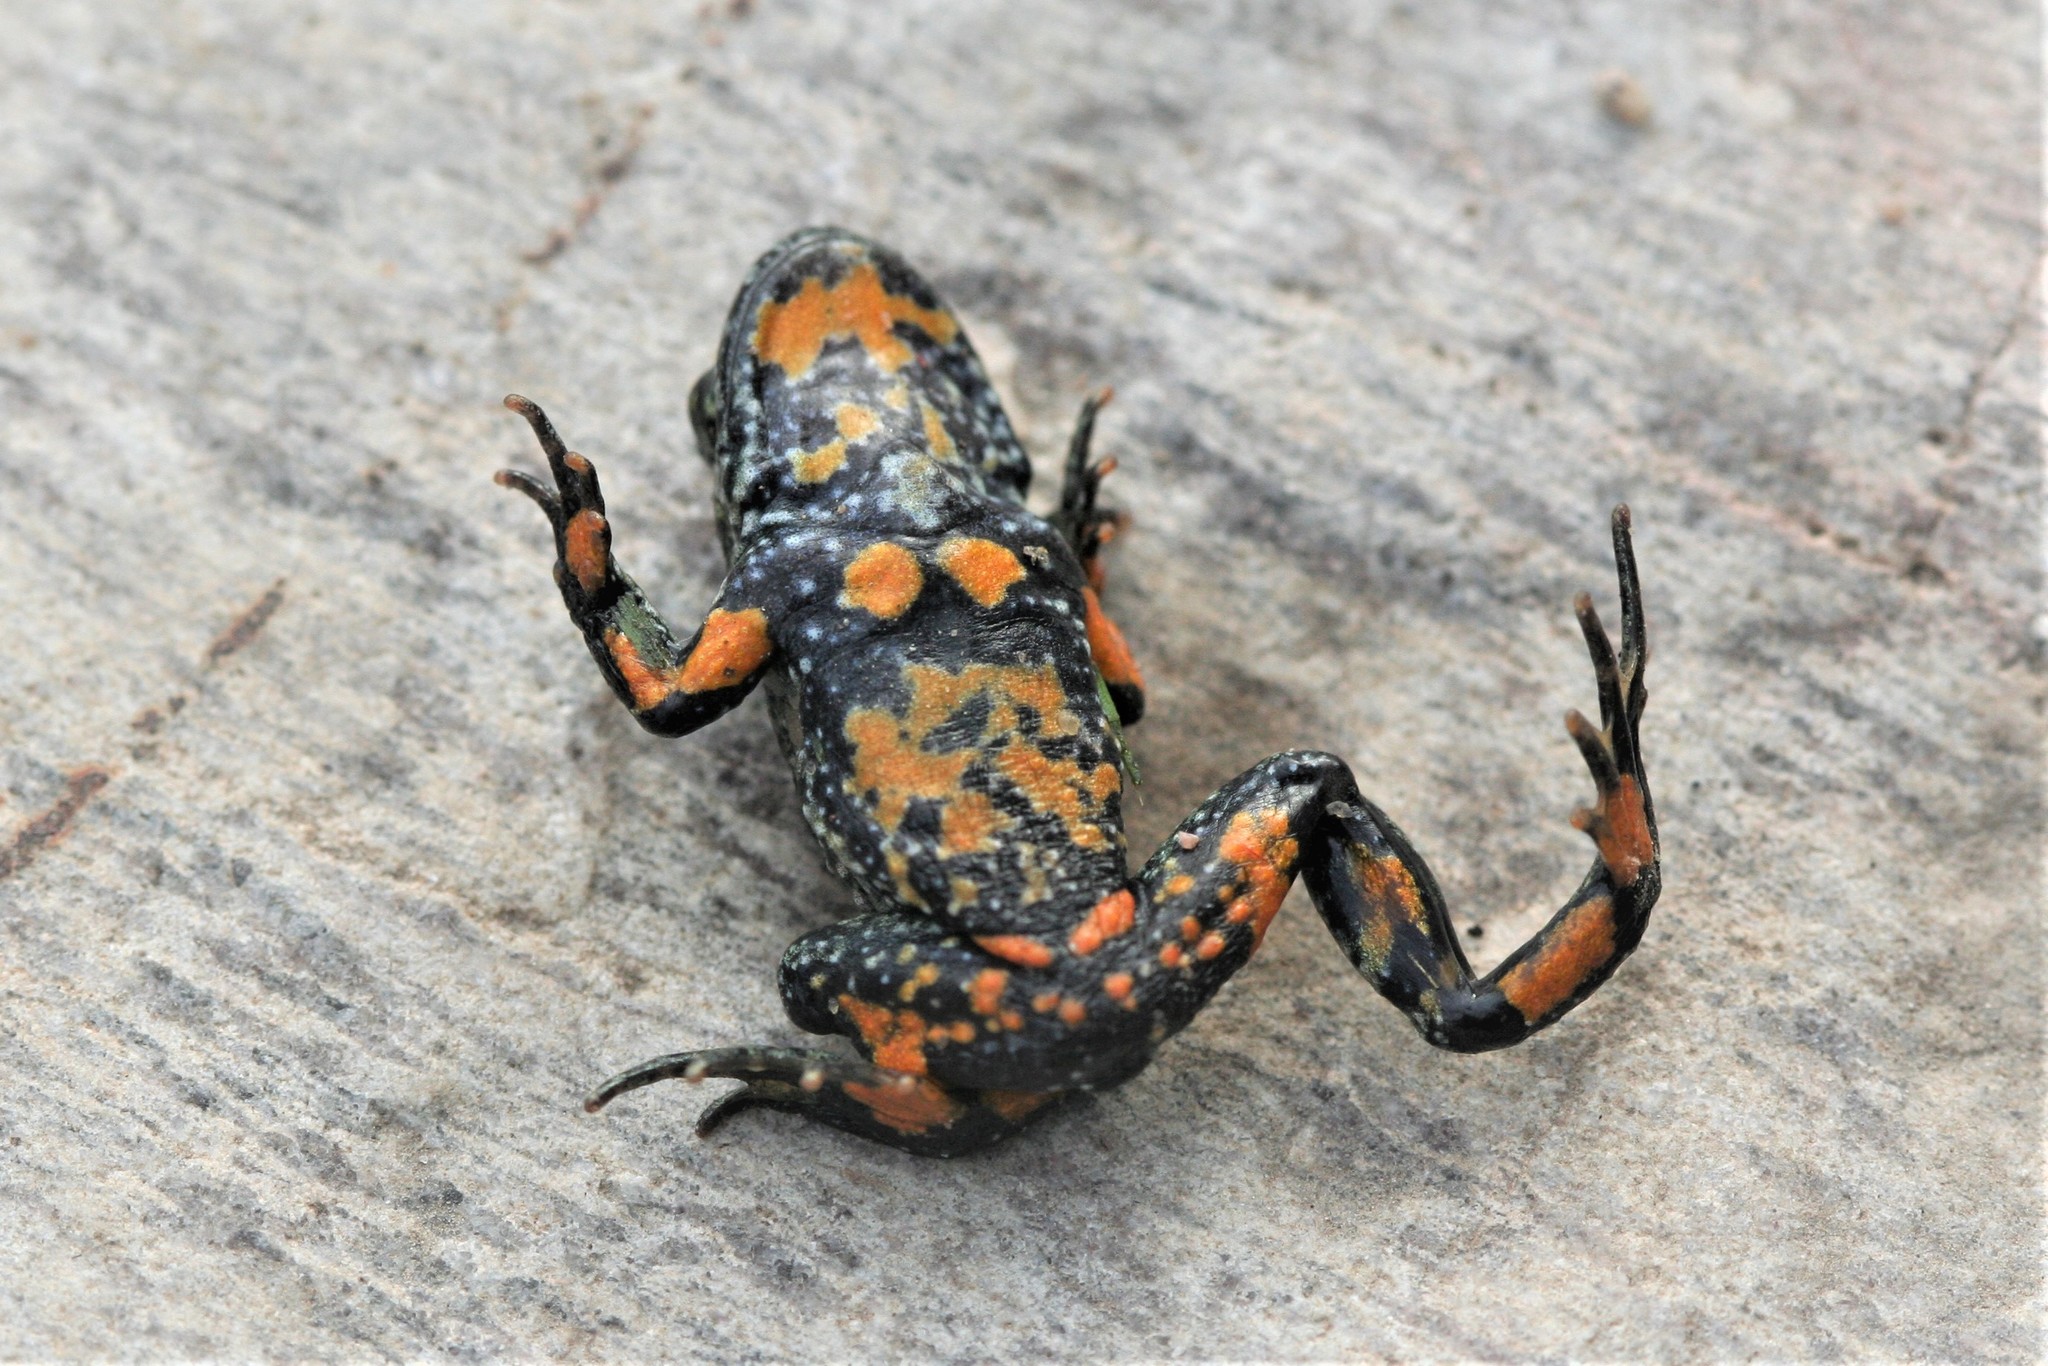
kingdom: Animalia
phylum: Chordata
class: Amphibia
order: Anura
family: Bombinatoridae
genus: Bombina
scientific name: Bombina bombina
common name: Fire-bellied toad
